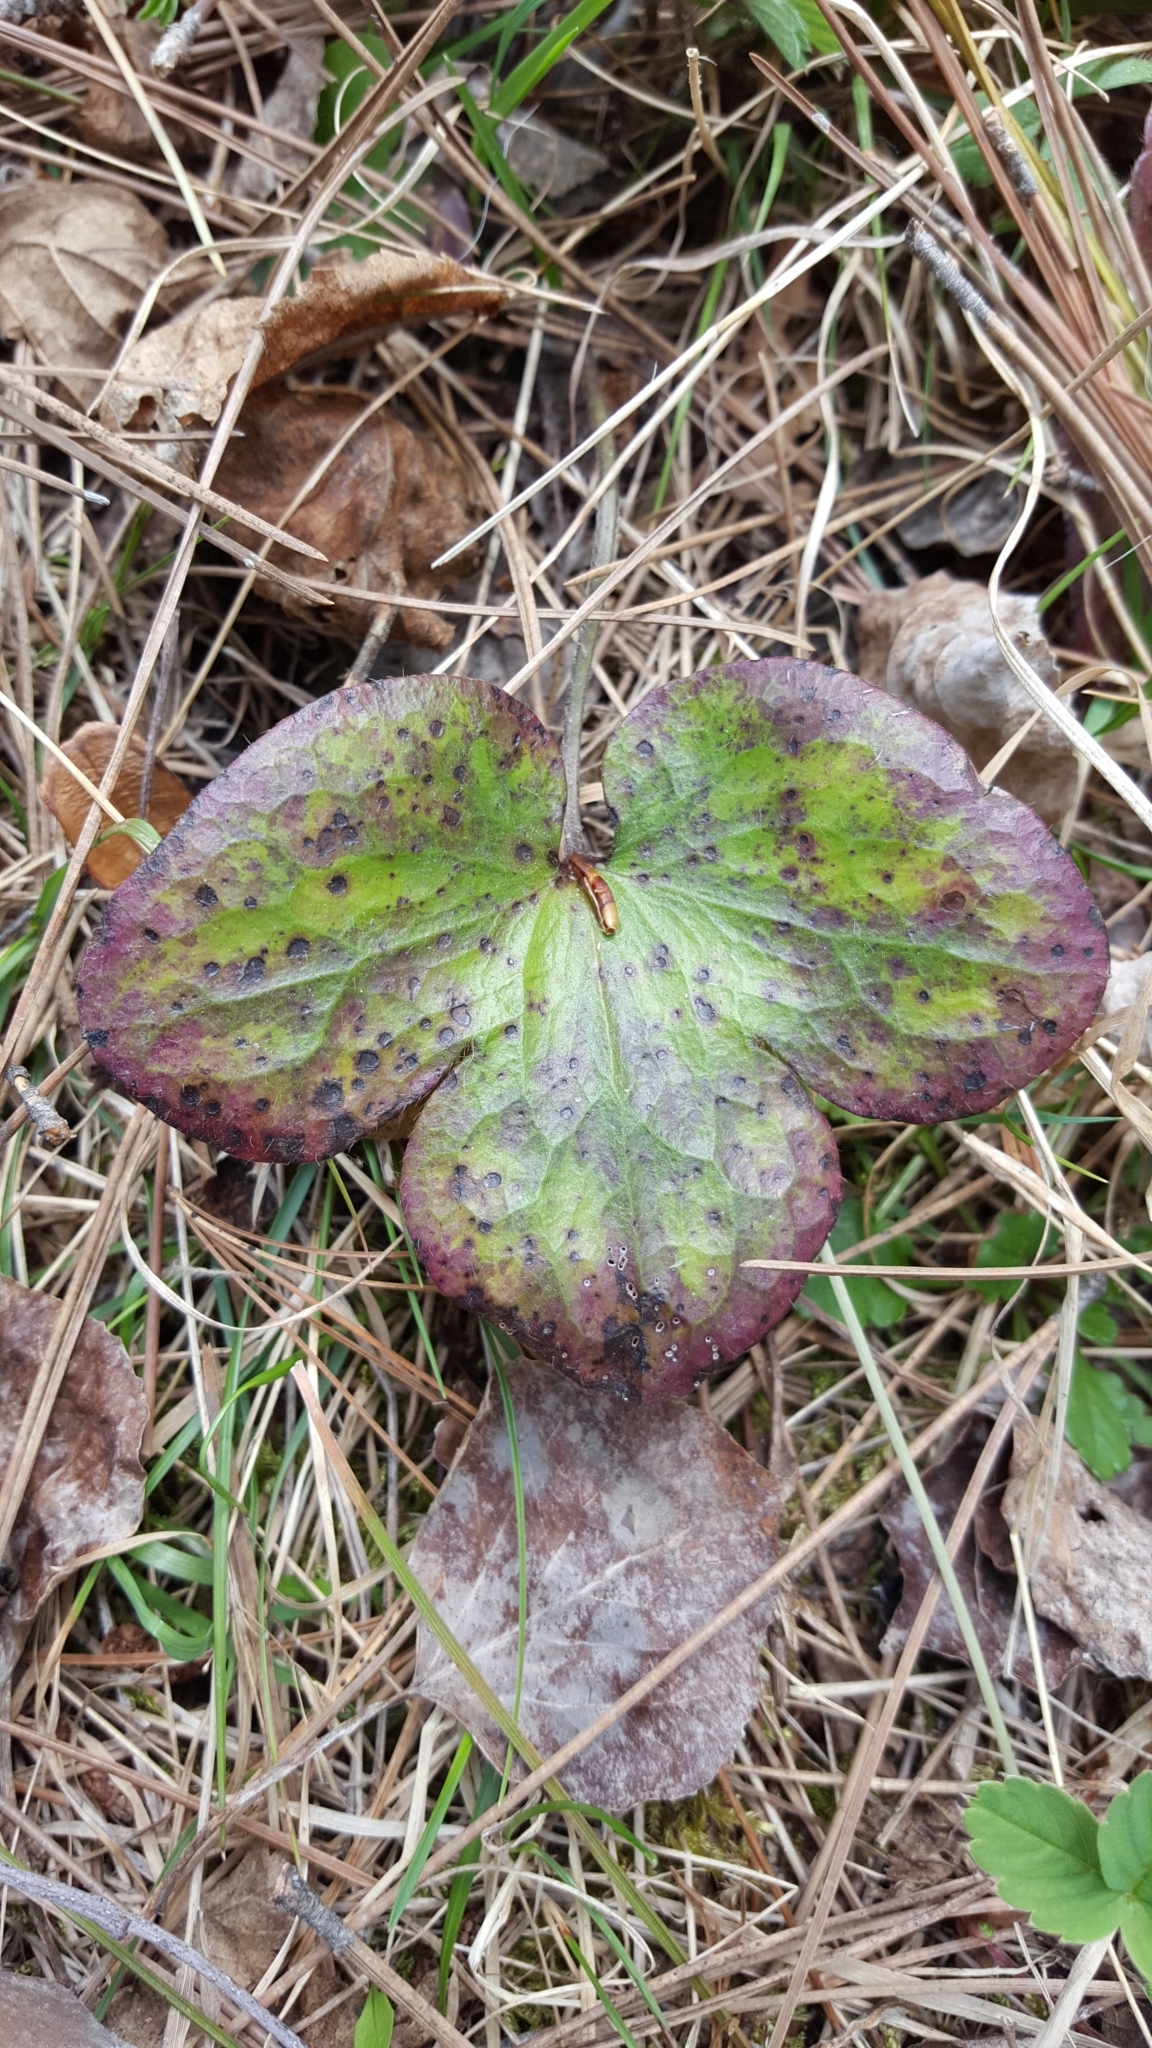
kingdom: Plantae
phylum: Tracheophyta
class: Magnoliopsida
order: Ranunculales
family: Ranunculaceae
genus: Hepatica
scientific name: Hepatica americana
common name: American hepatica
